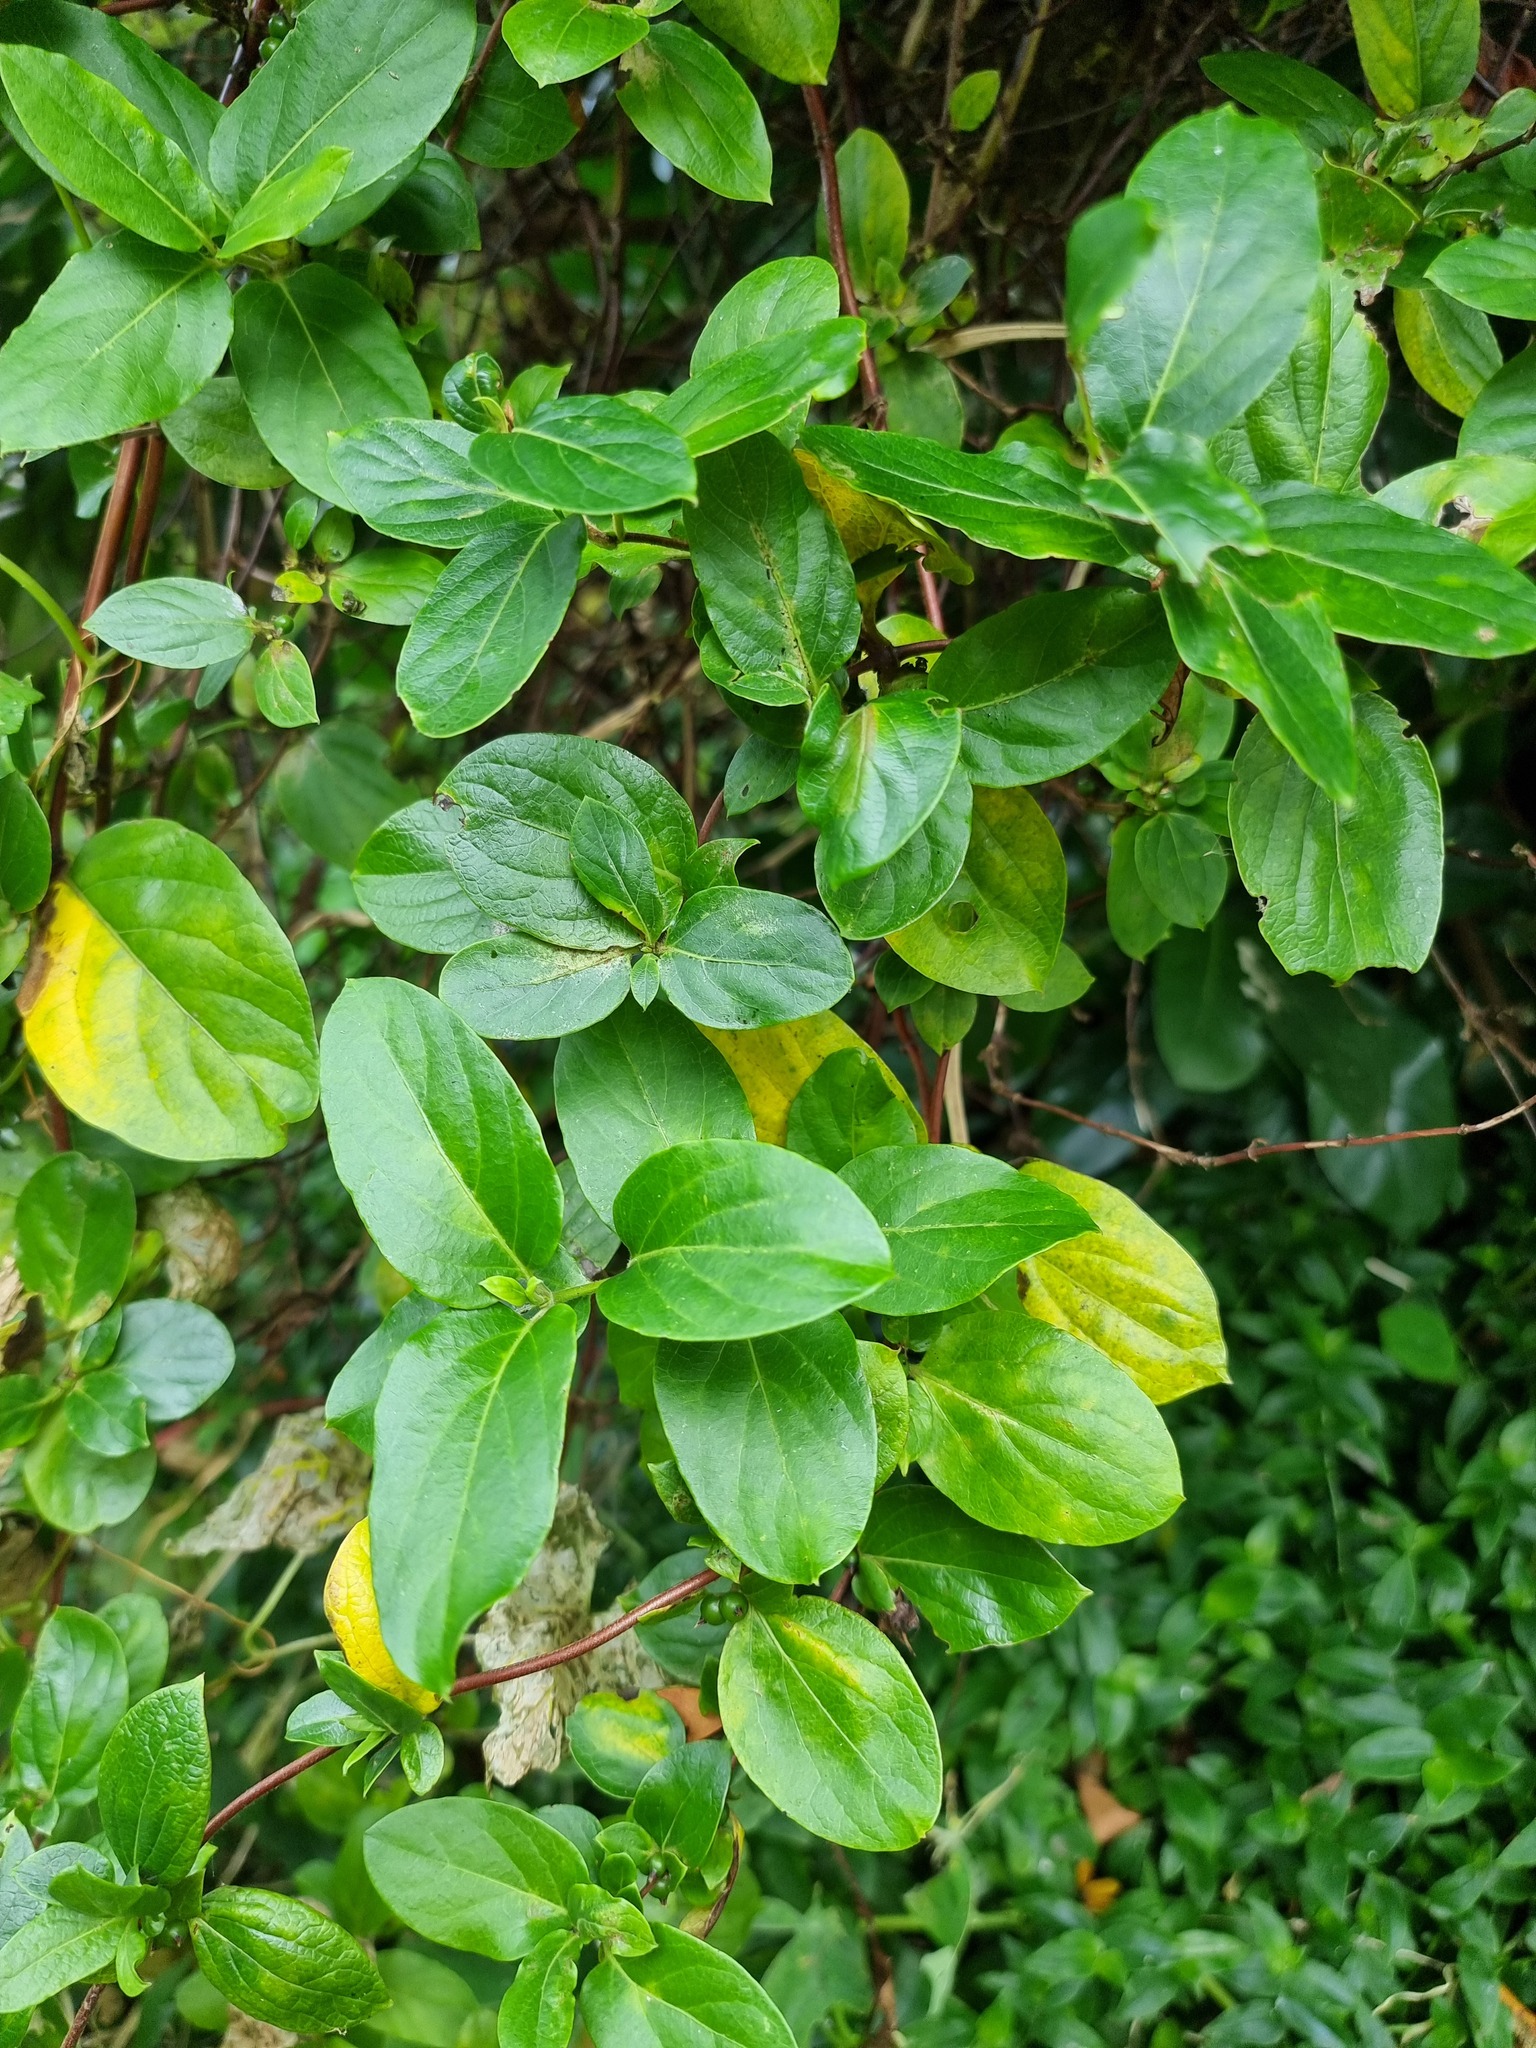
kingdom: Plantae
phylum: Tracheophyta
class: Magnoliopsida
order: Dipsacales
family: Caprifoliaceae
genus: Lonicera
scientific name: Lonicera japonica
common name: Japanese honeysuckle
